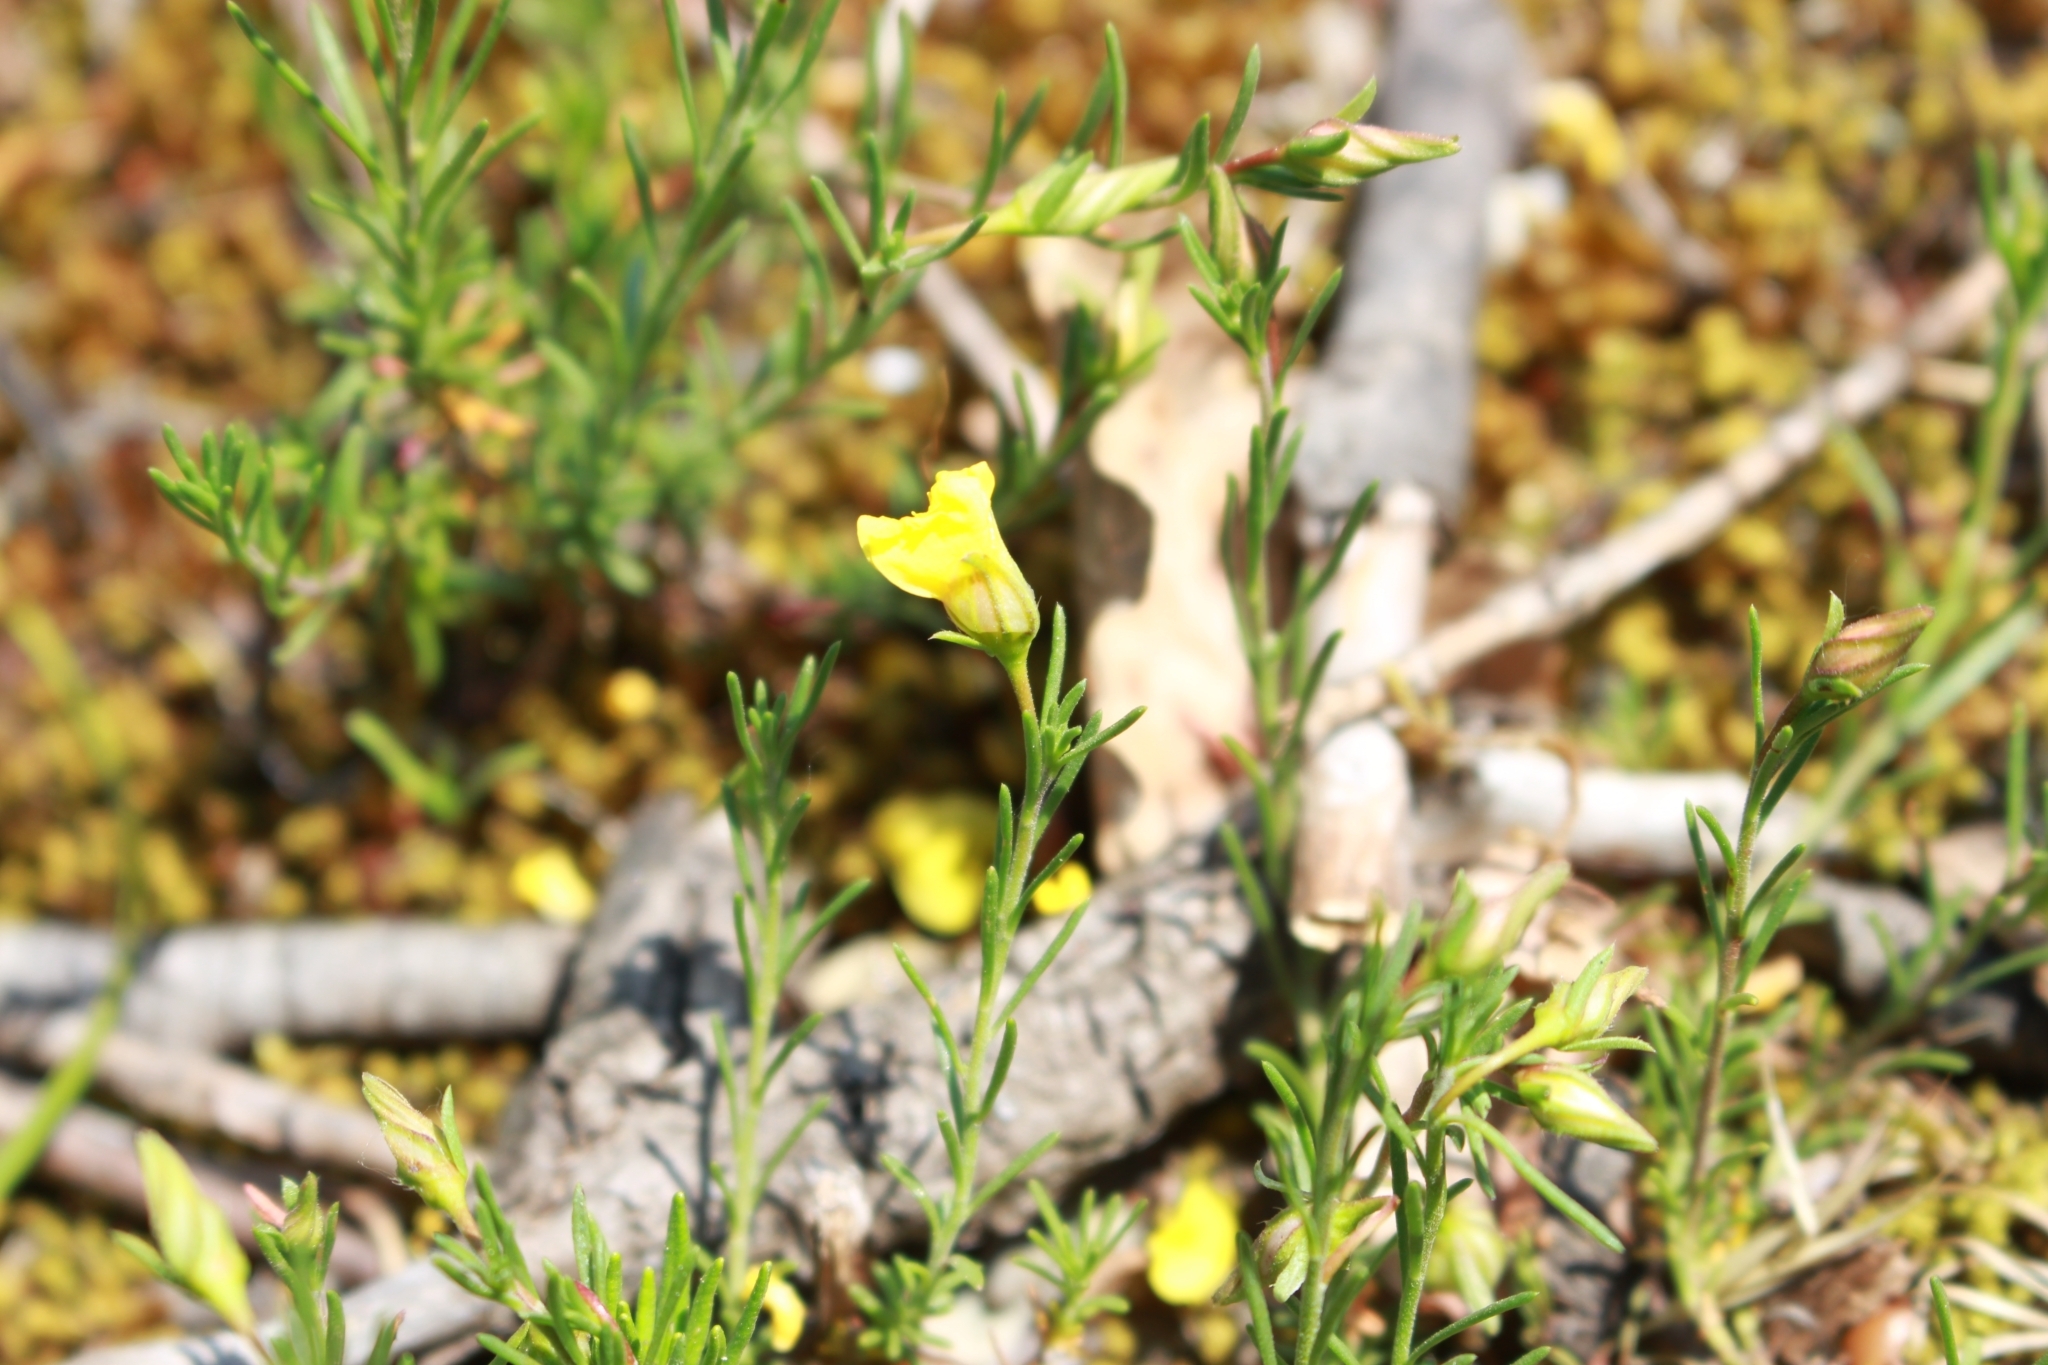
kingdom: Plantae
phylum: Tracheophyta
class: Magnoliopsida
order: Malvales
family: Cistaceae
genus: Fumana
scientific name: Fumana procumbens
